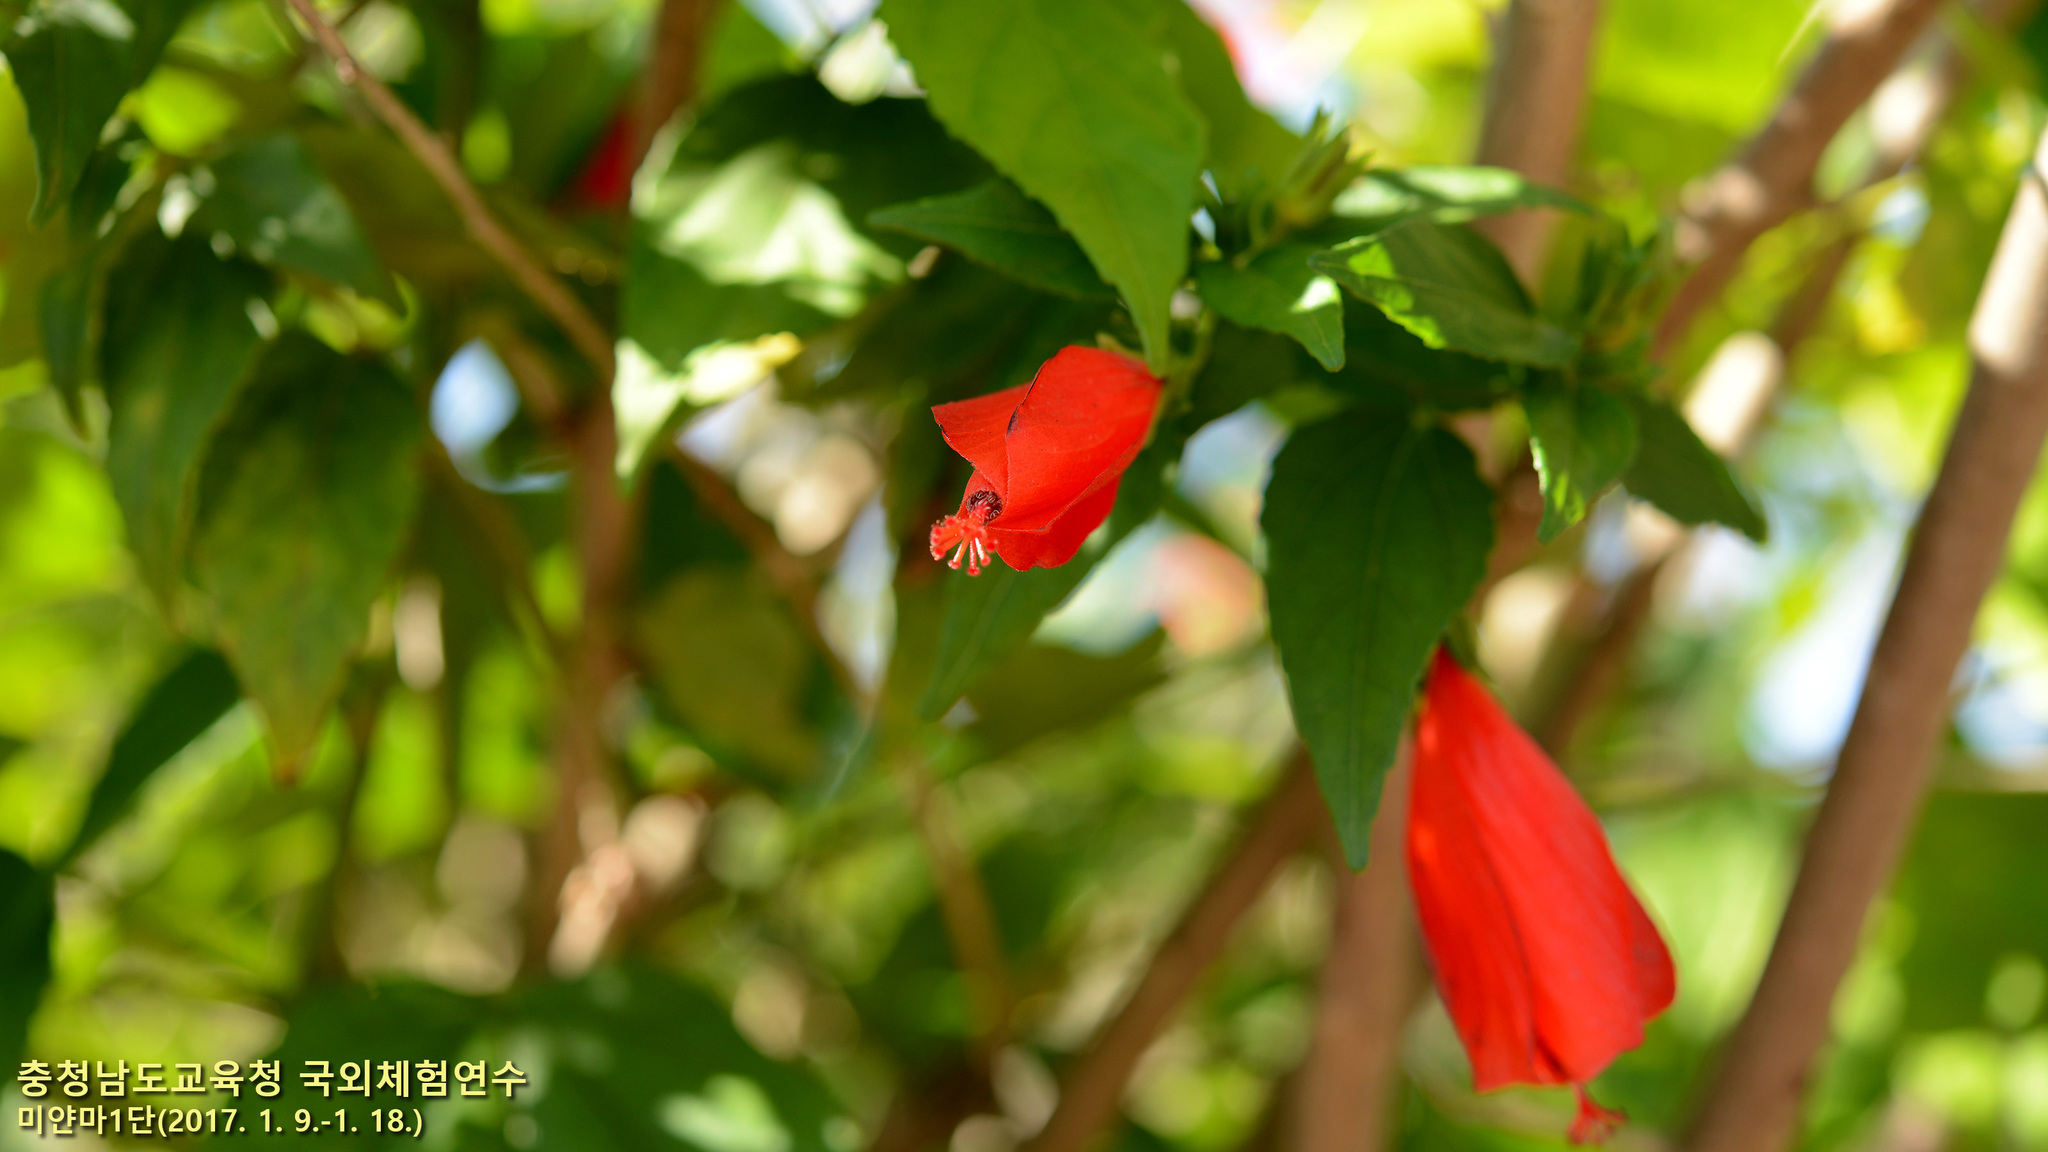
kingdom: Plantae
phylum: Tracheophyta
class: Magnoliopsida
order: Malvales
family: Malvaceae
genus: Malvaviscus
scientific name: Malvaviscus penduliflorus
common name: Mazapan
